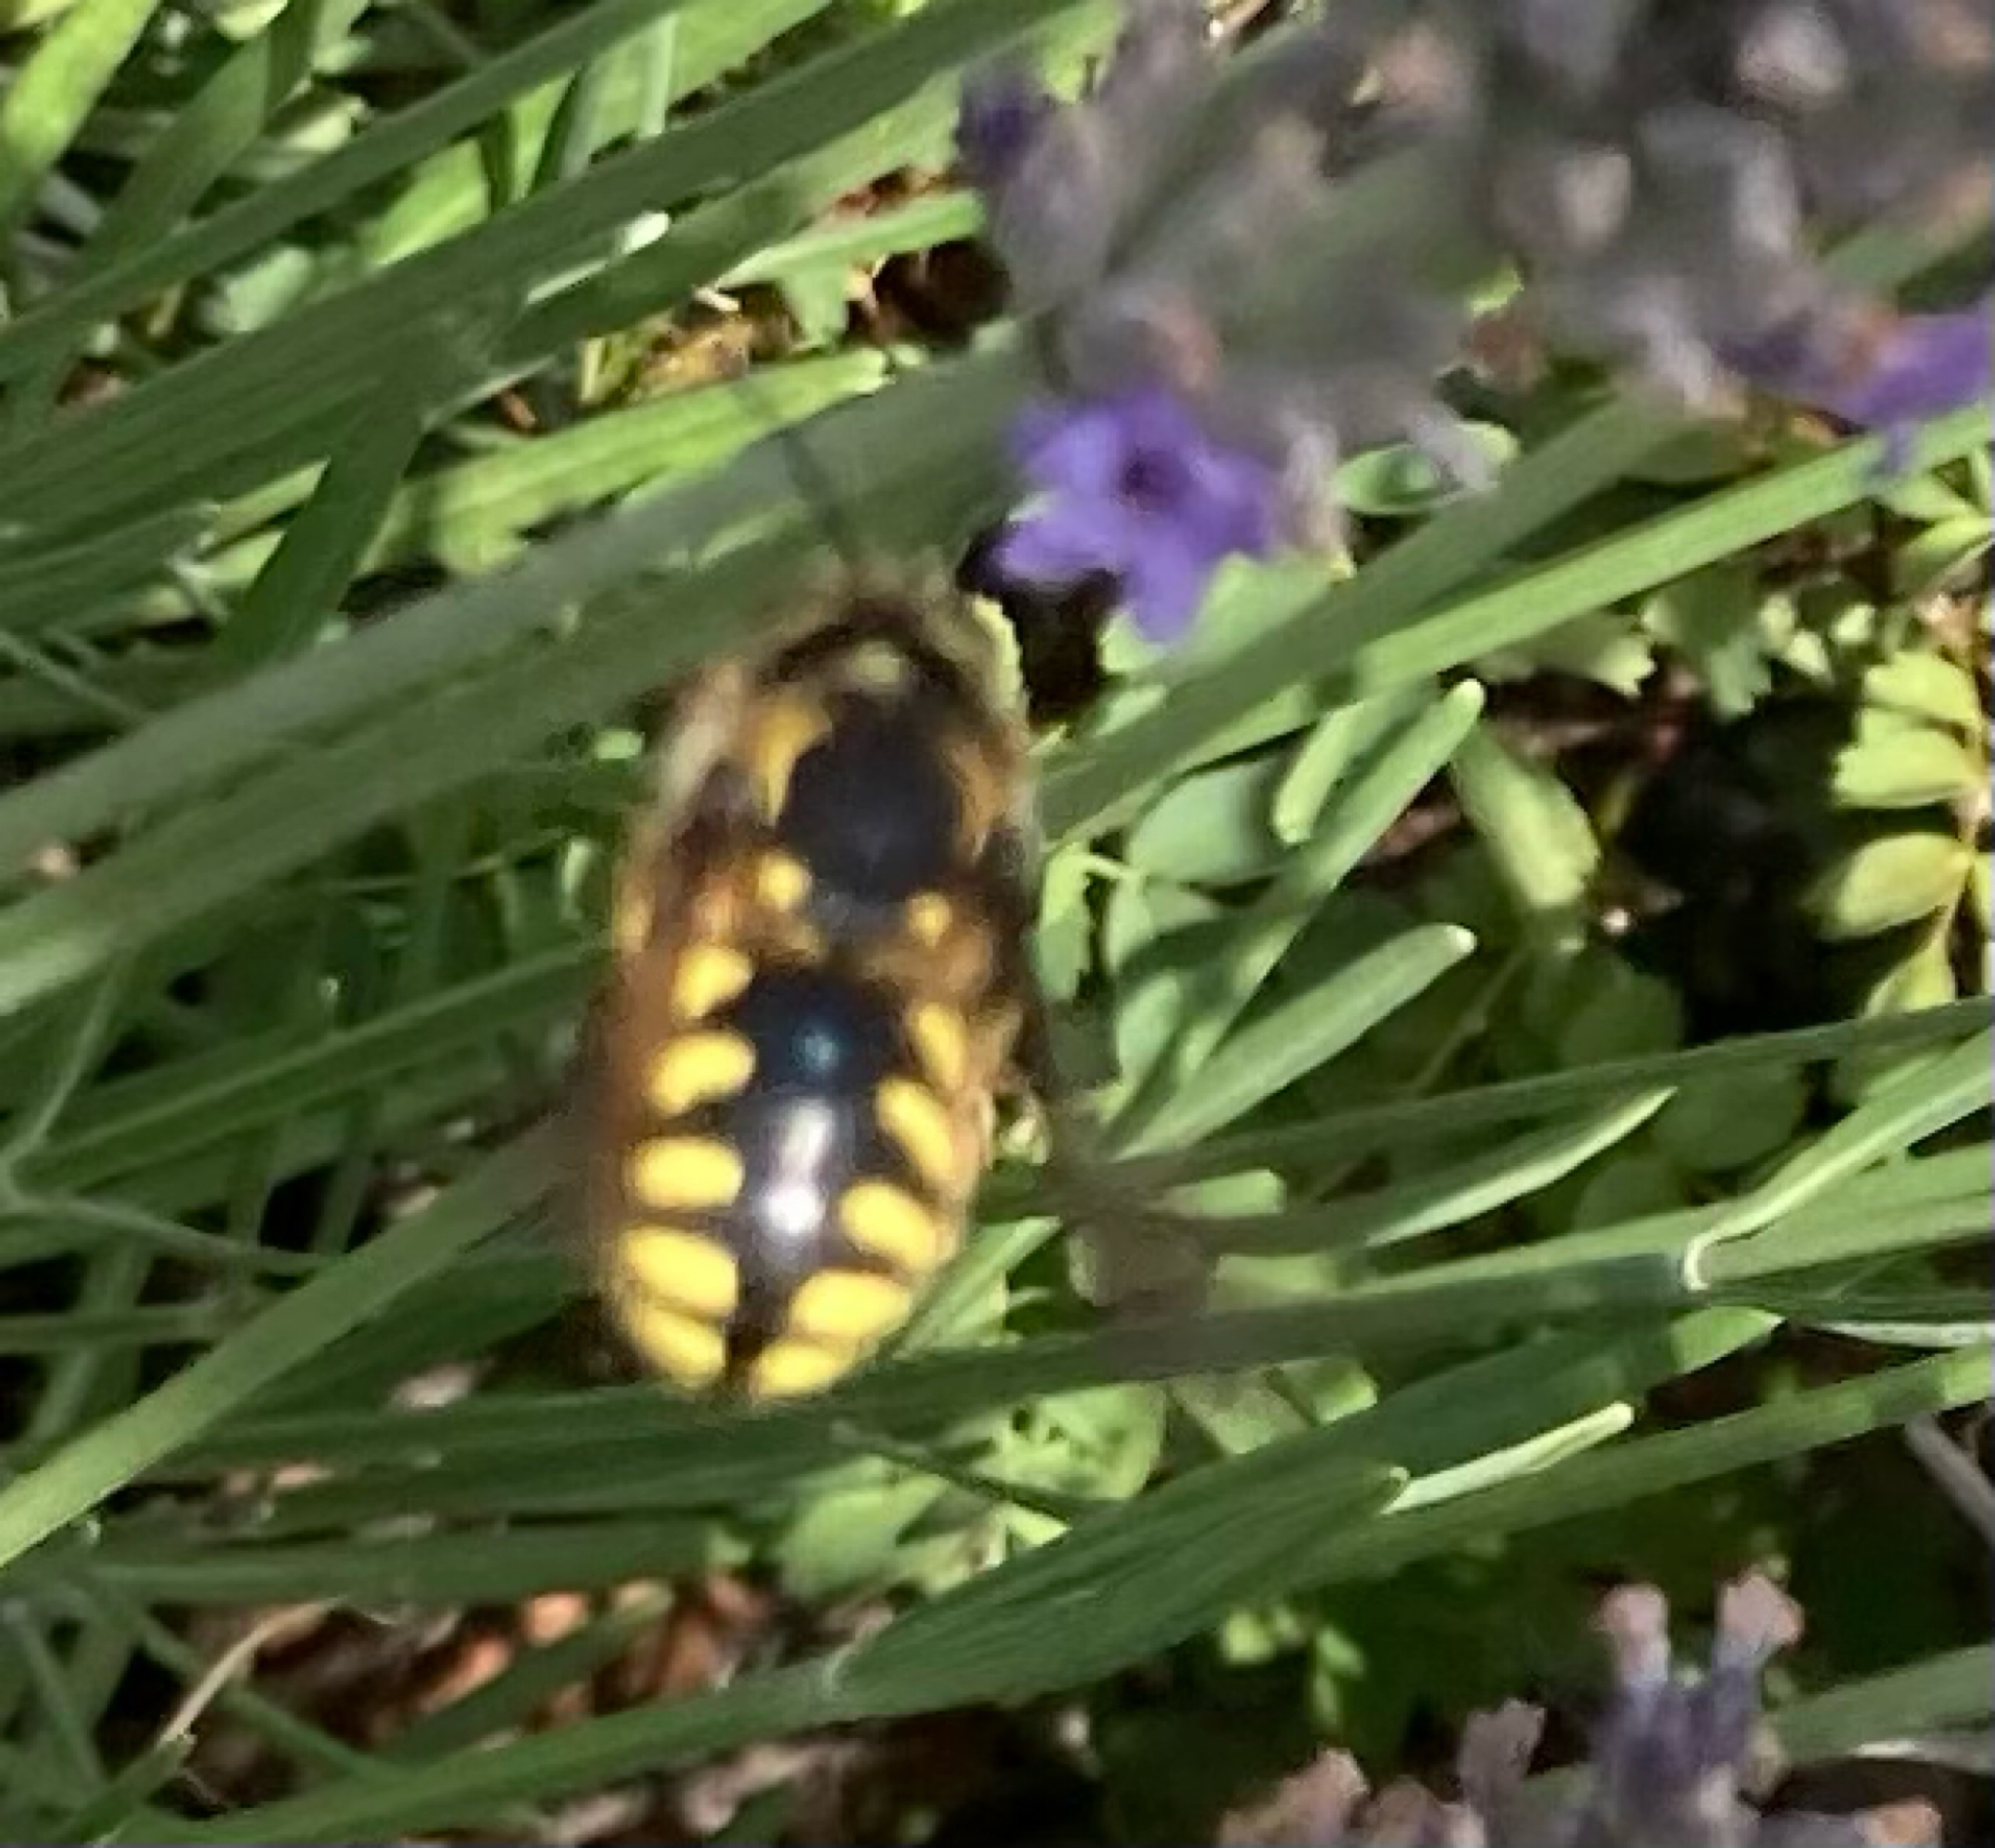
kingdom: Animalia
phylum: Arthropoda
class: Insecta
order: Hymenoptera
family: Megachilidae
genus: Anthidium
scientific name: Anthidium florentinum
